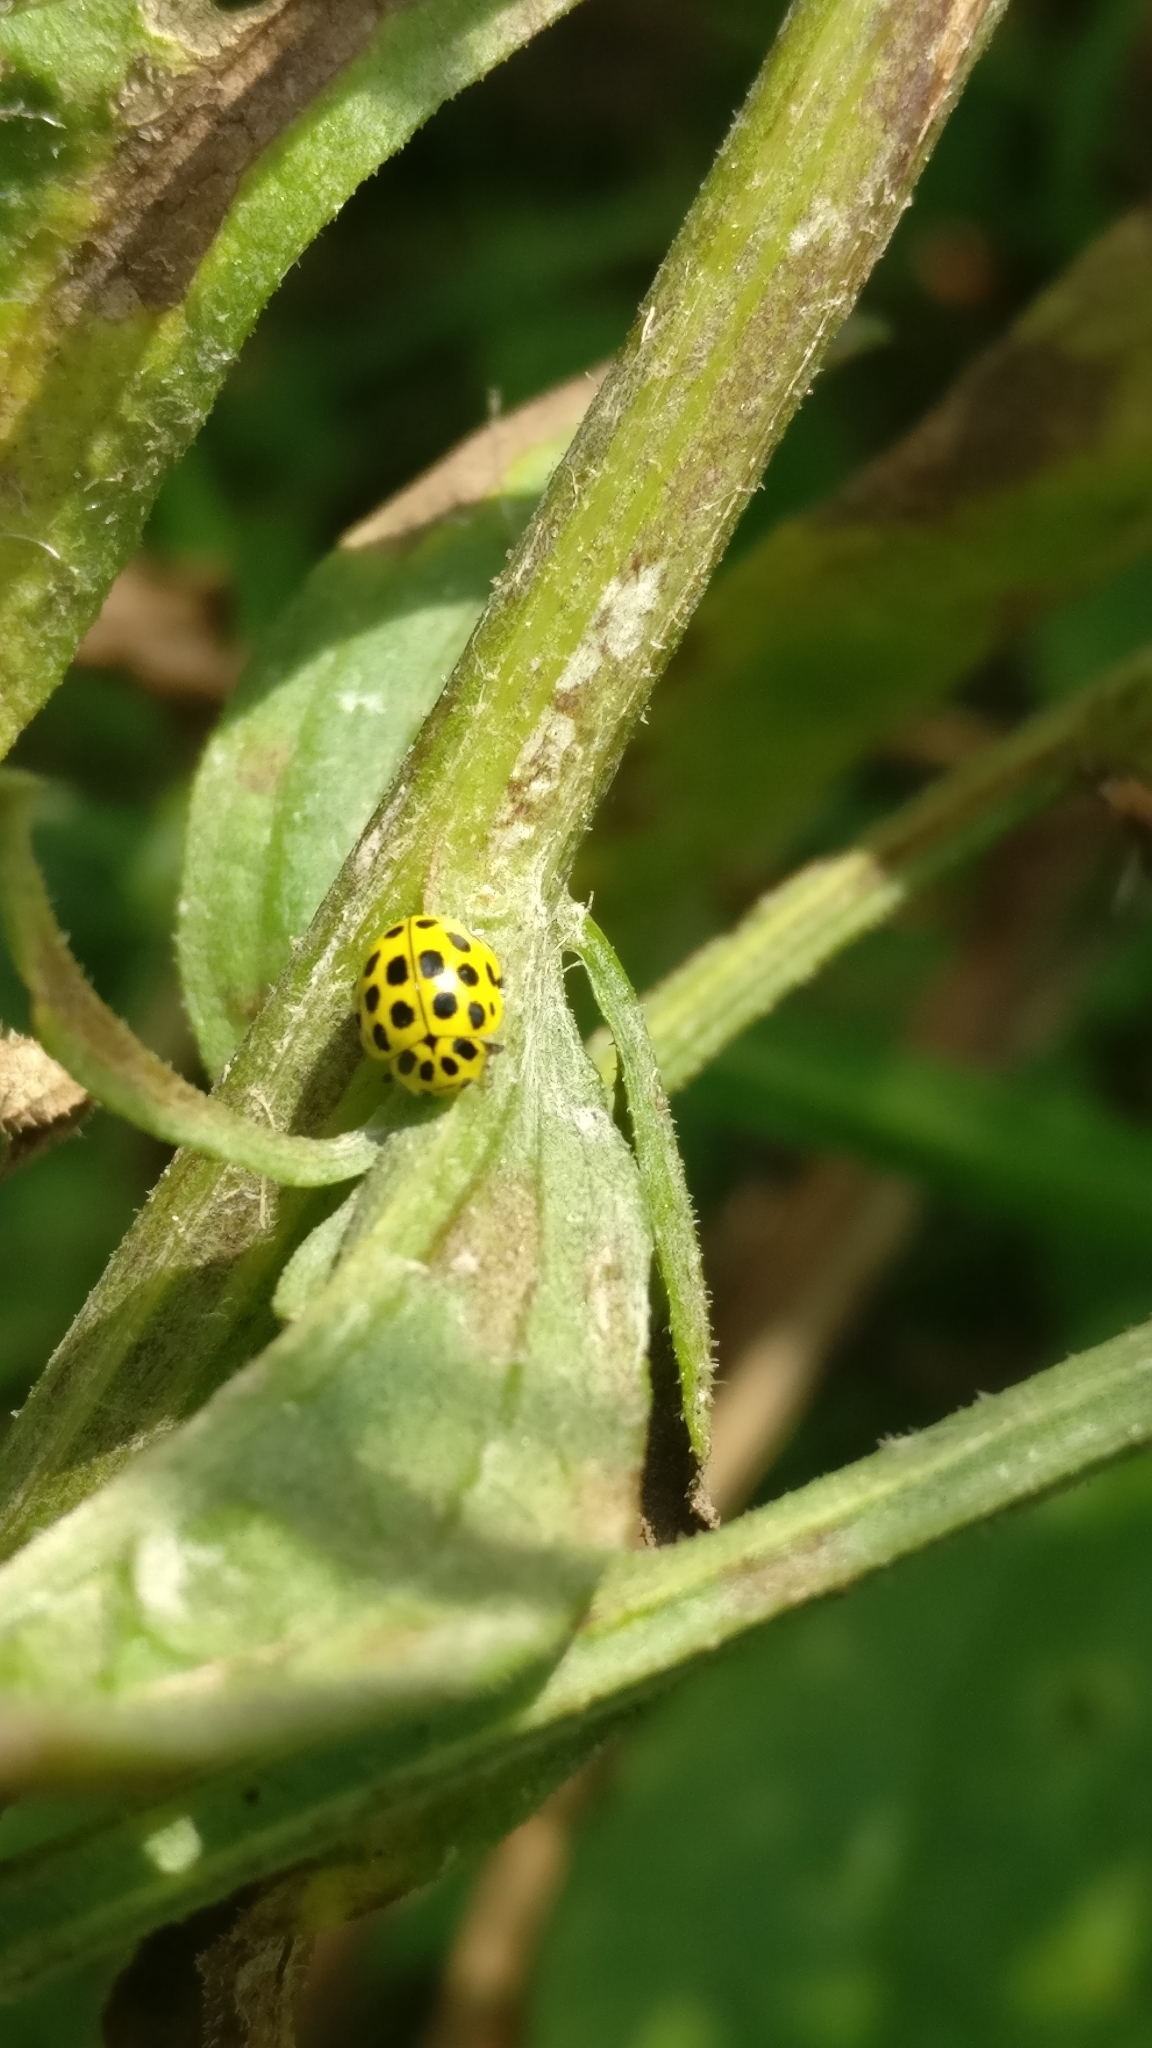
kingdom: Animalia
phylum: Arthropoda
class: Insecta
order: Coleoptera
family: Coccinellidae
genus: Psyllobora
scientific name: Psyllobora vigintiduopunctata
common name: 22-spot ladybird
